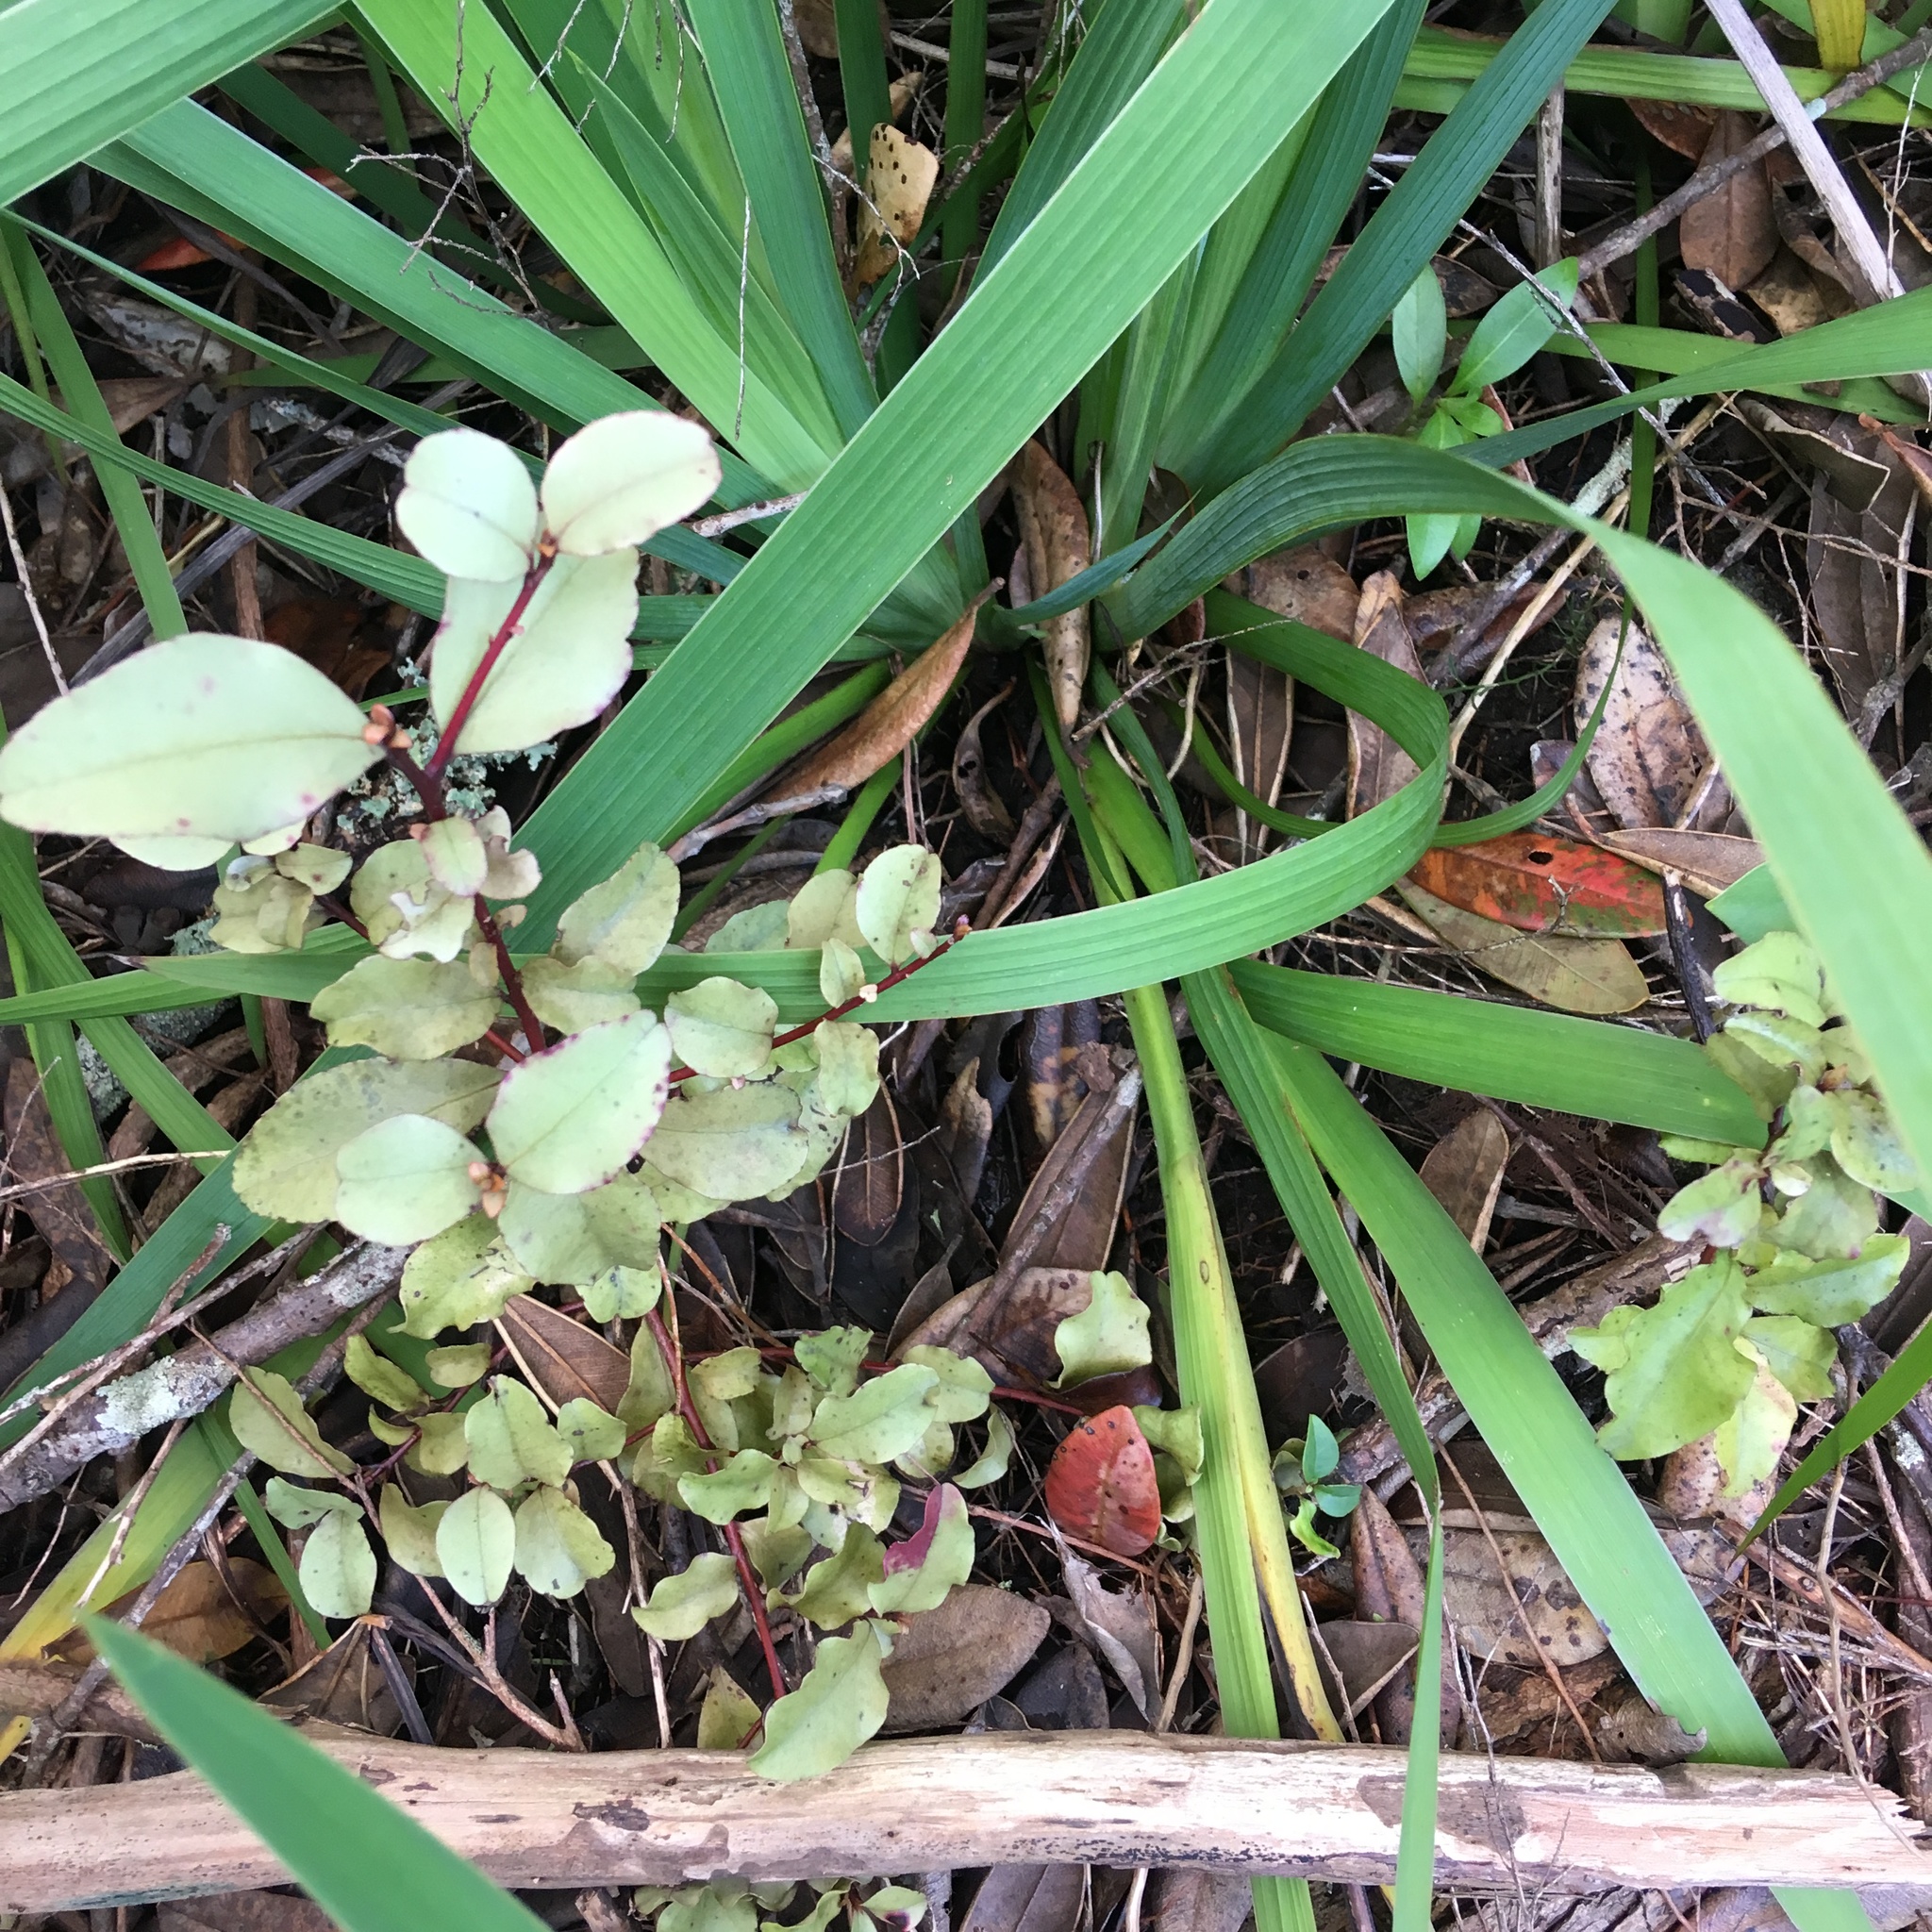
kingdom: Plantae
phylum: Tracheophyta
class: Liliopsida
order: Asparagales
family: Iridaceae
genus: Aristea
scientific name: Aristea ecklonii
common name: Blue corn-lily
